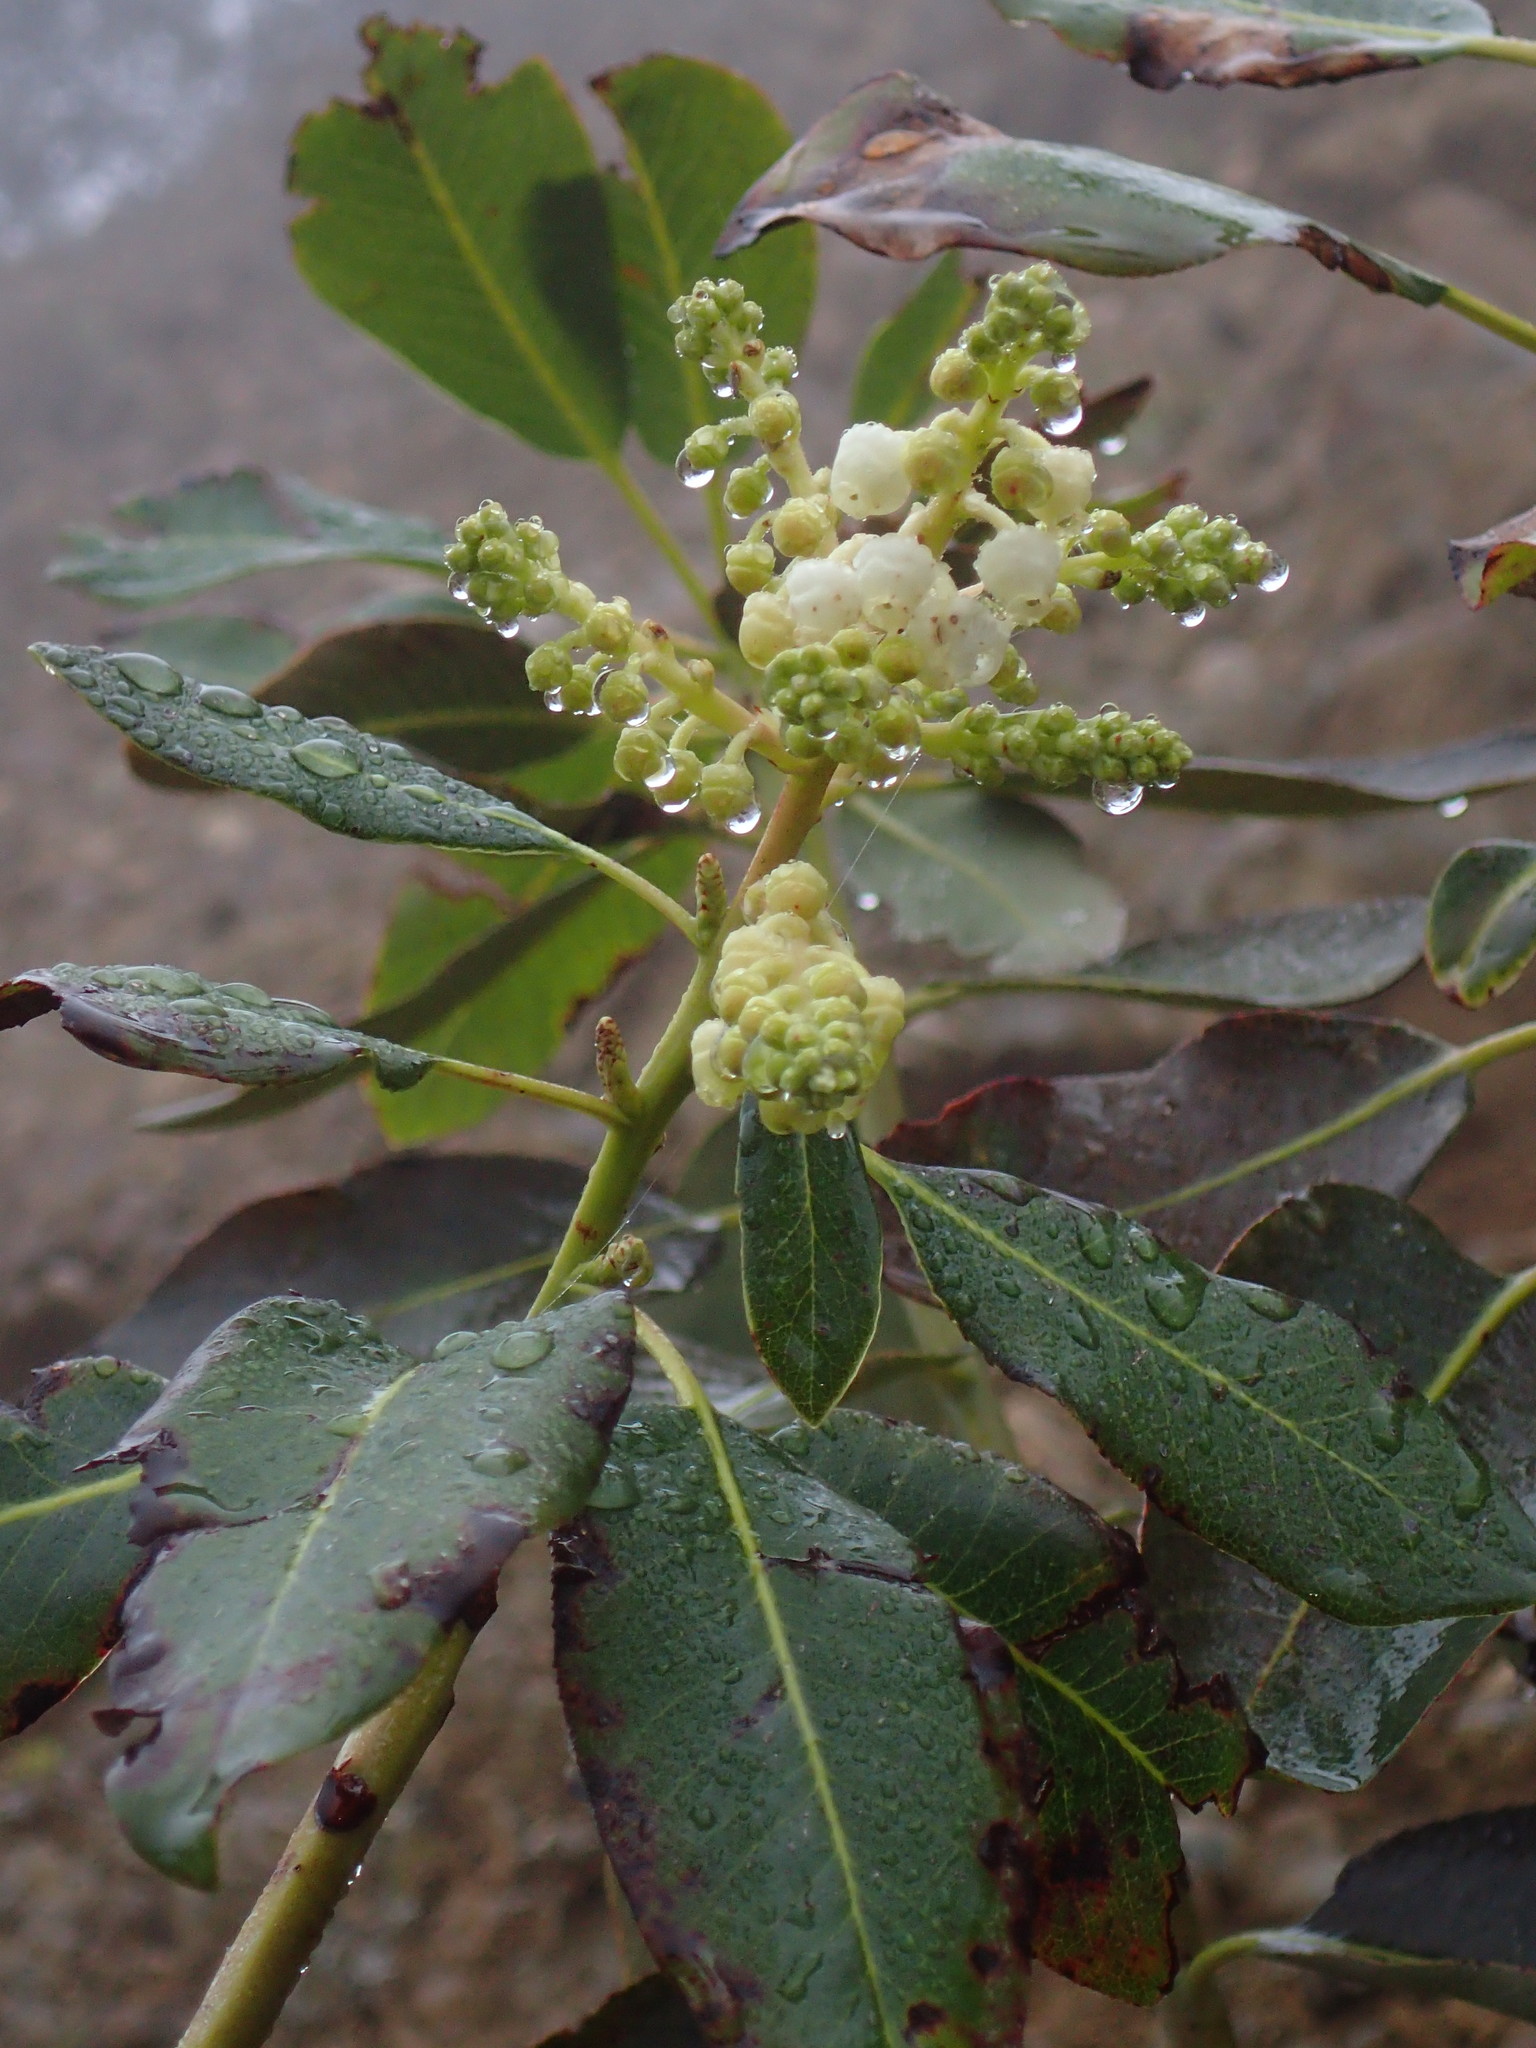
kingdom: Plantae
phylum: Tracheophyta
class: Magnoliopsida
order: Ericales
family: Ericaceae
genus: Arbutus
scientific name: Arbutus menziesii
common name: Pacific madrone
